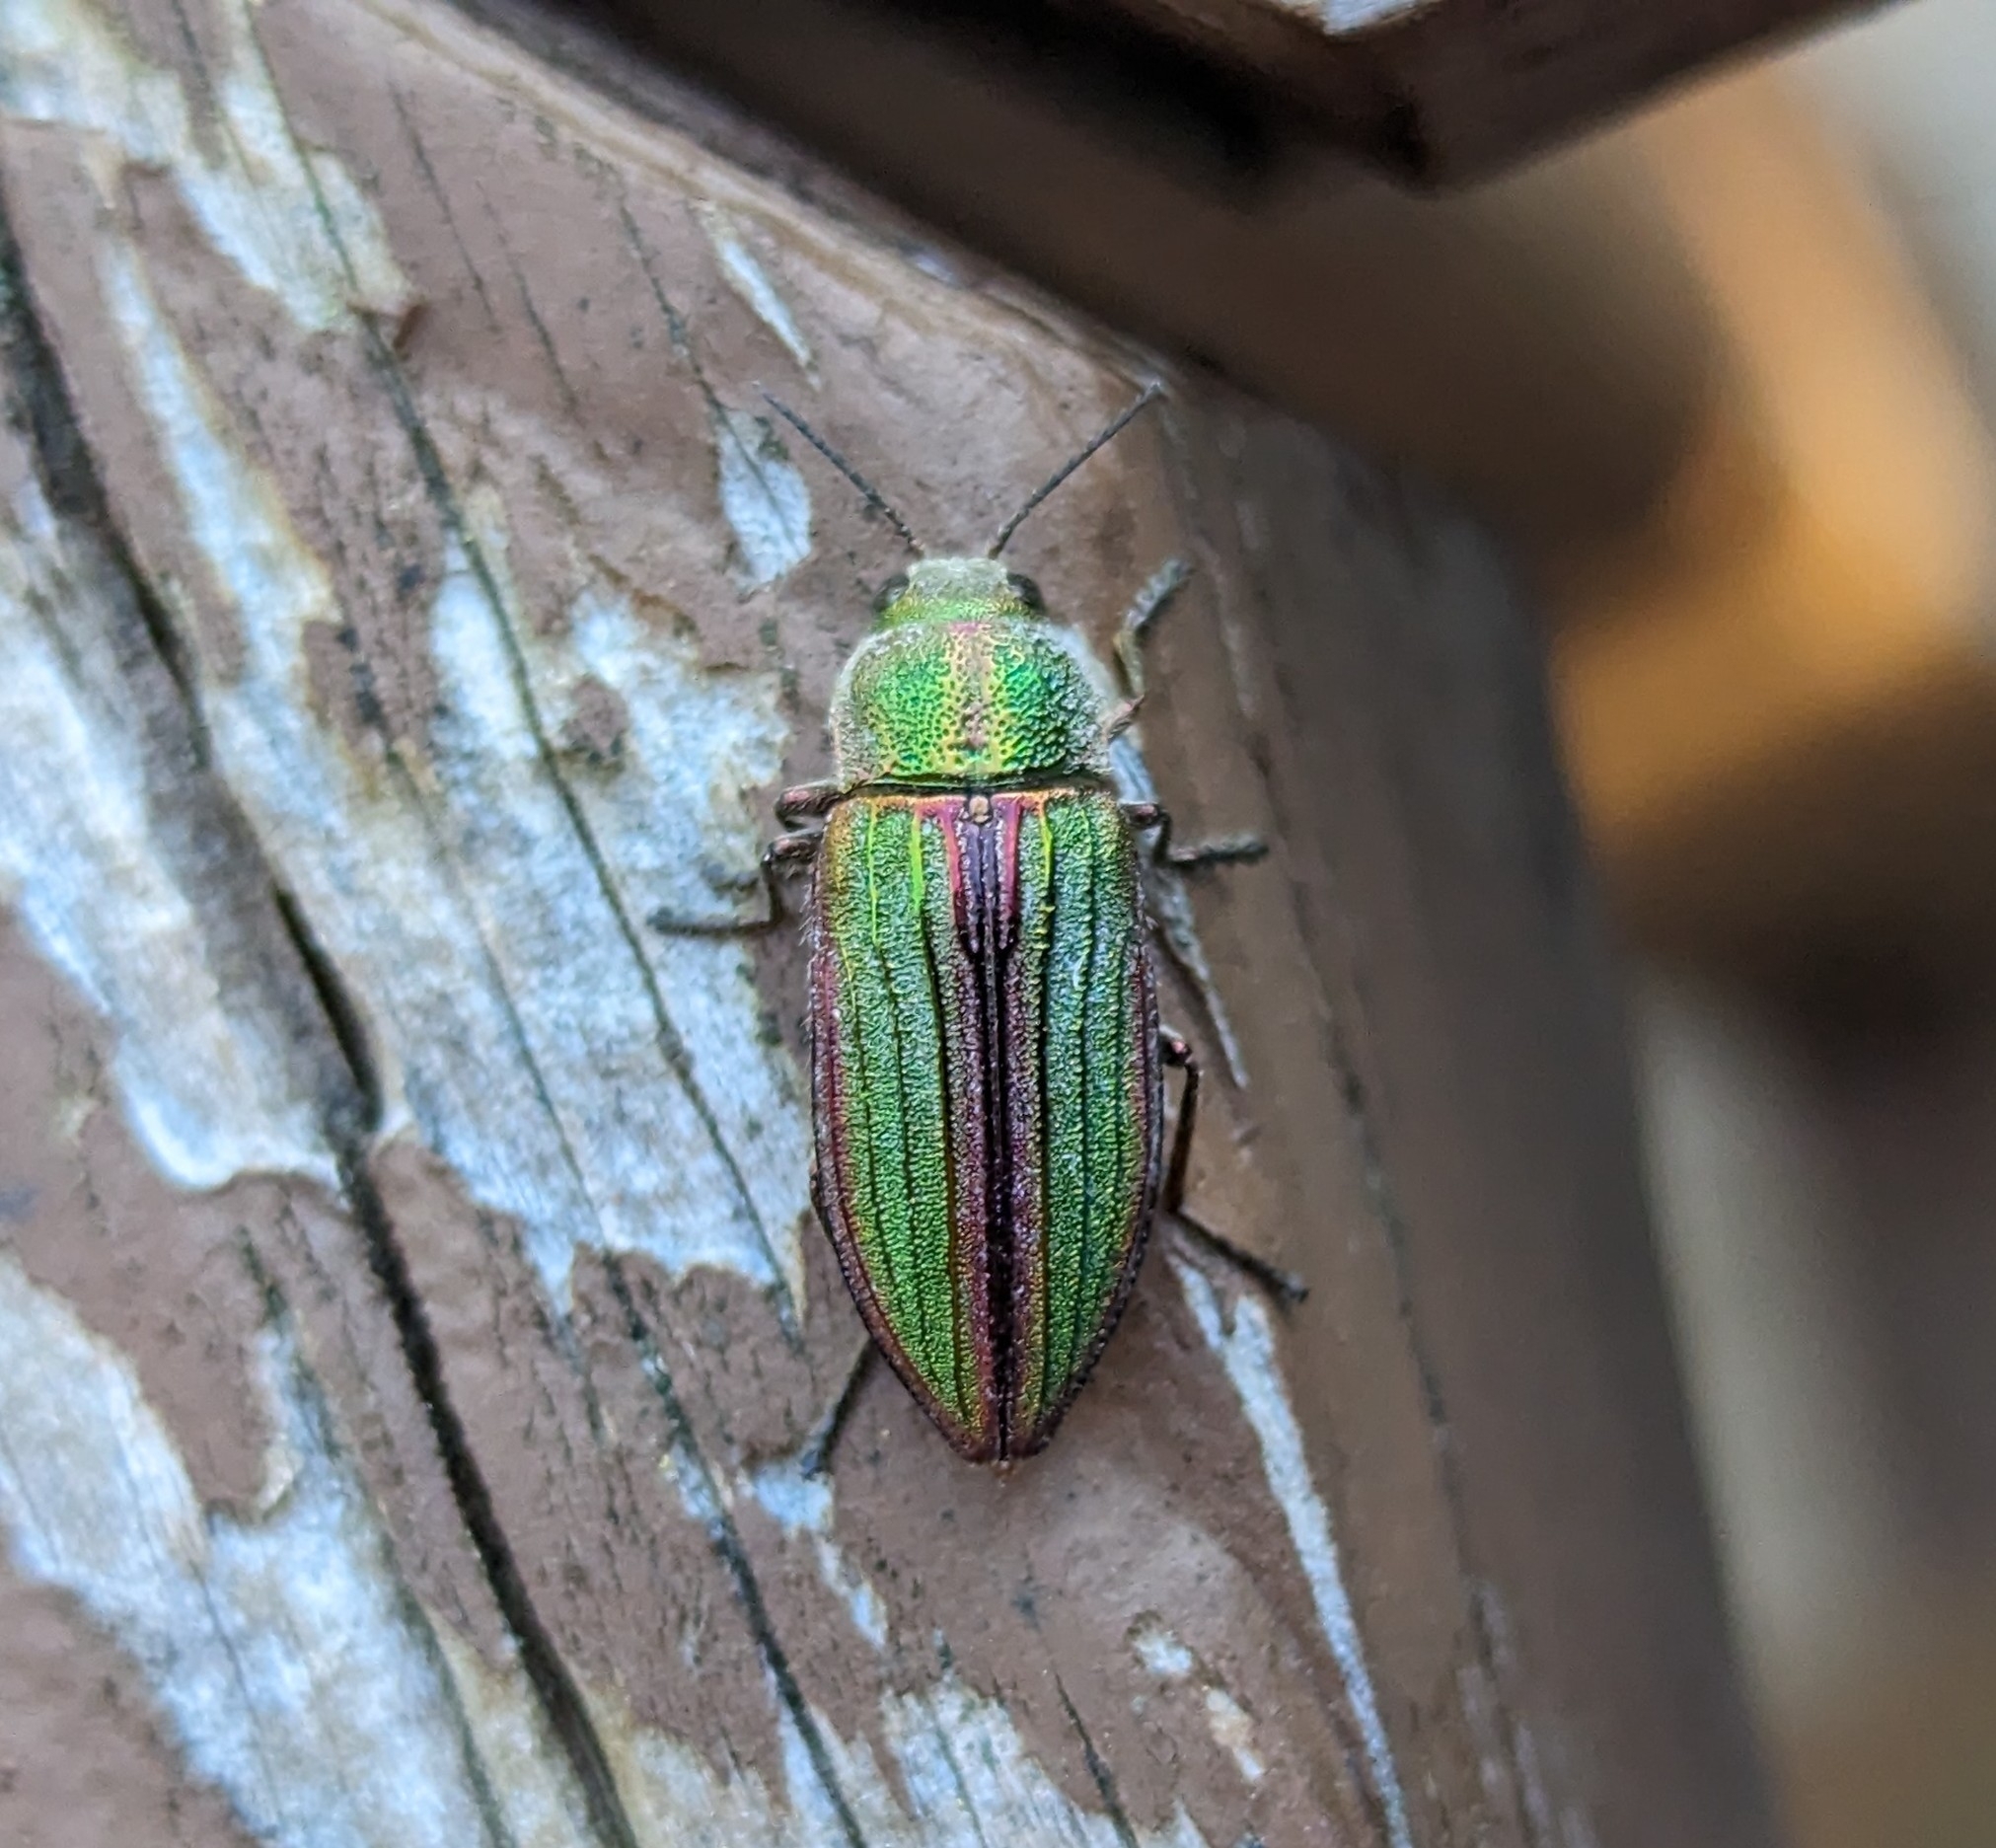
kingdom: Animalia
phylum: Arthropoda
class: Insecta
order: Coleoptera
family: Buprestidae
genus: Buprestis
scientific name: Buprestis aurulenta
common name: Golden buprestid
